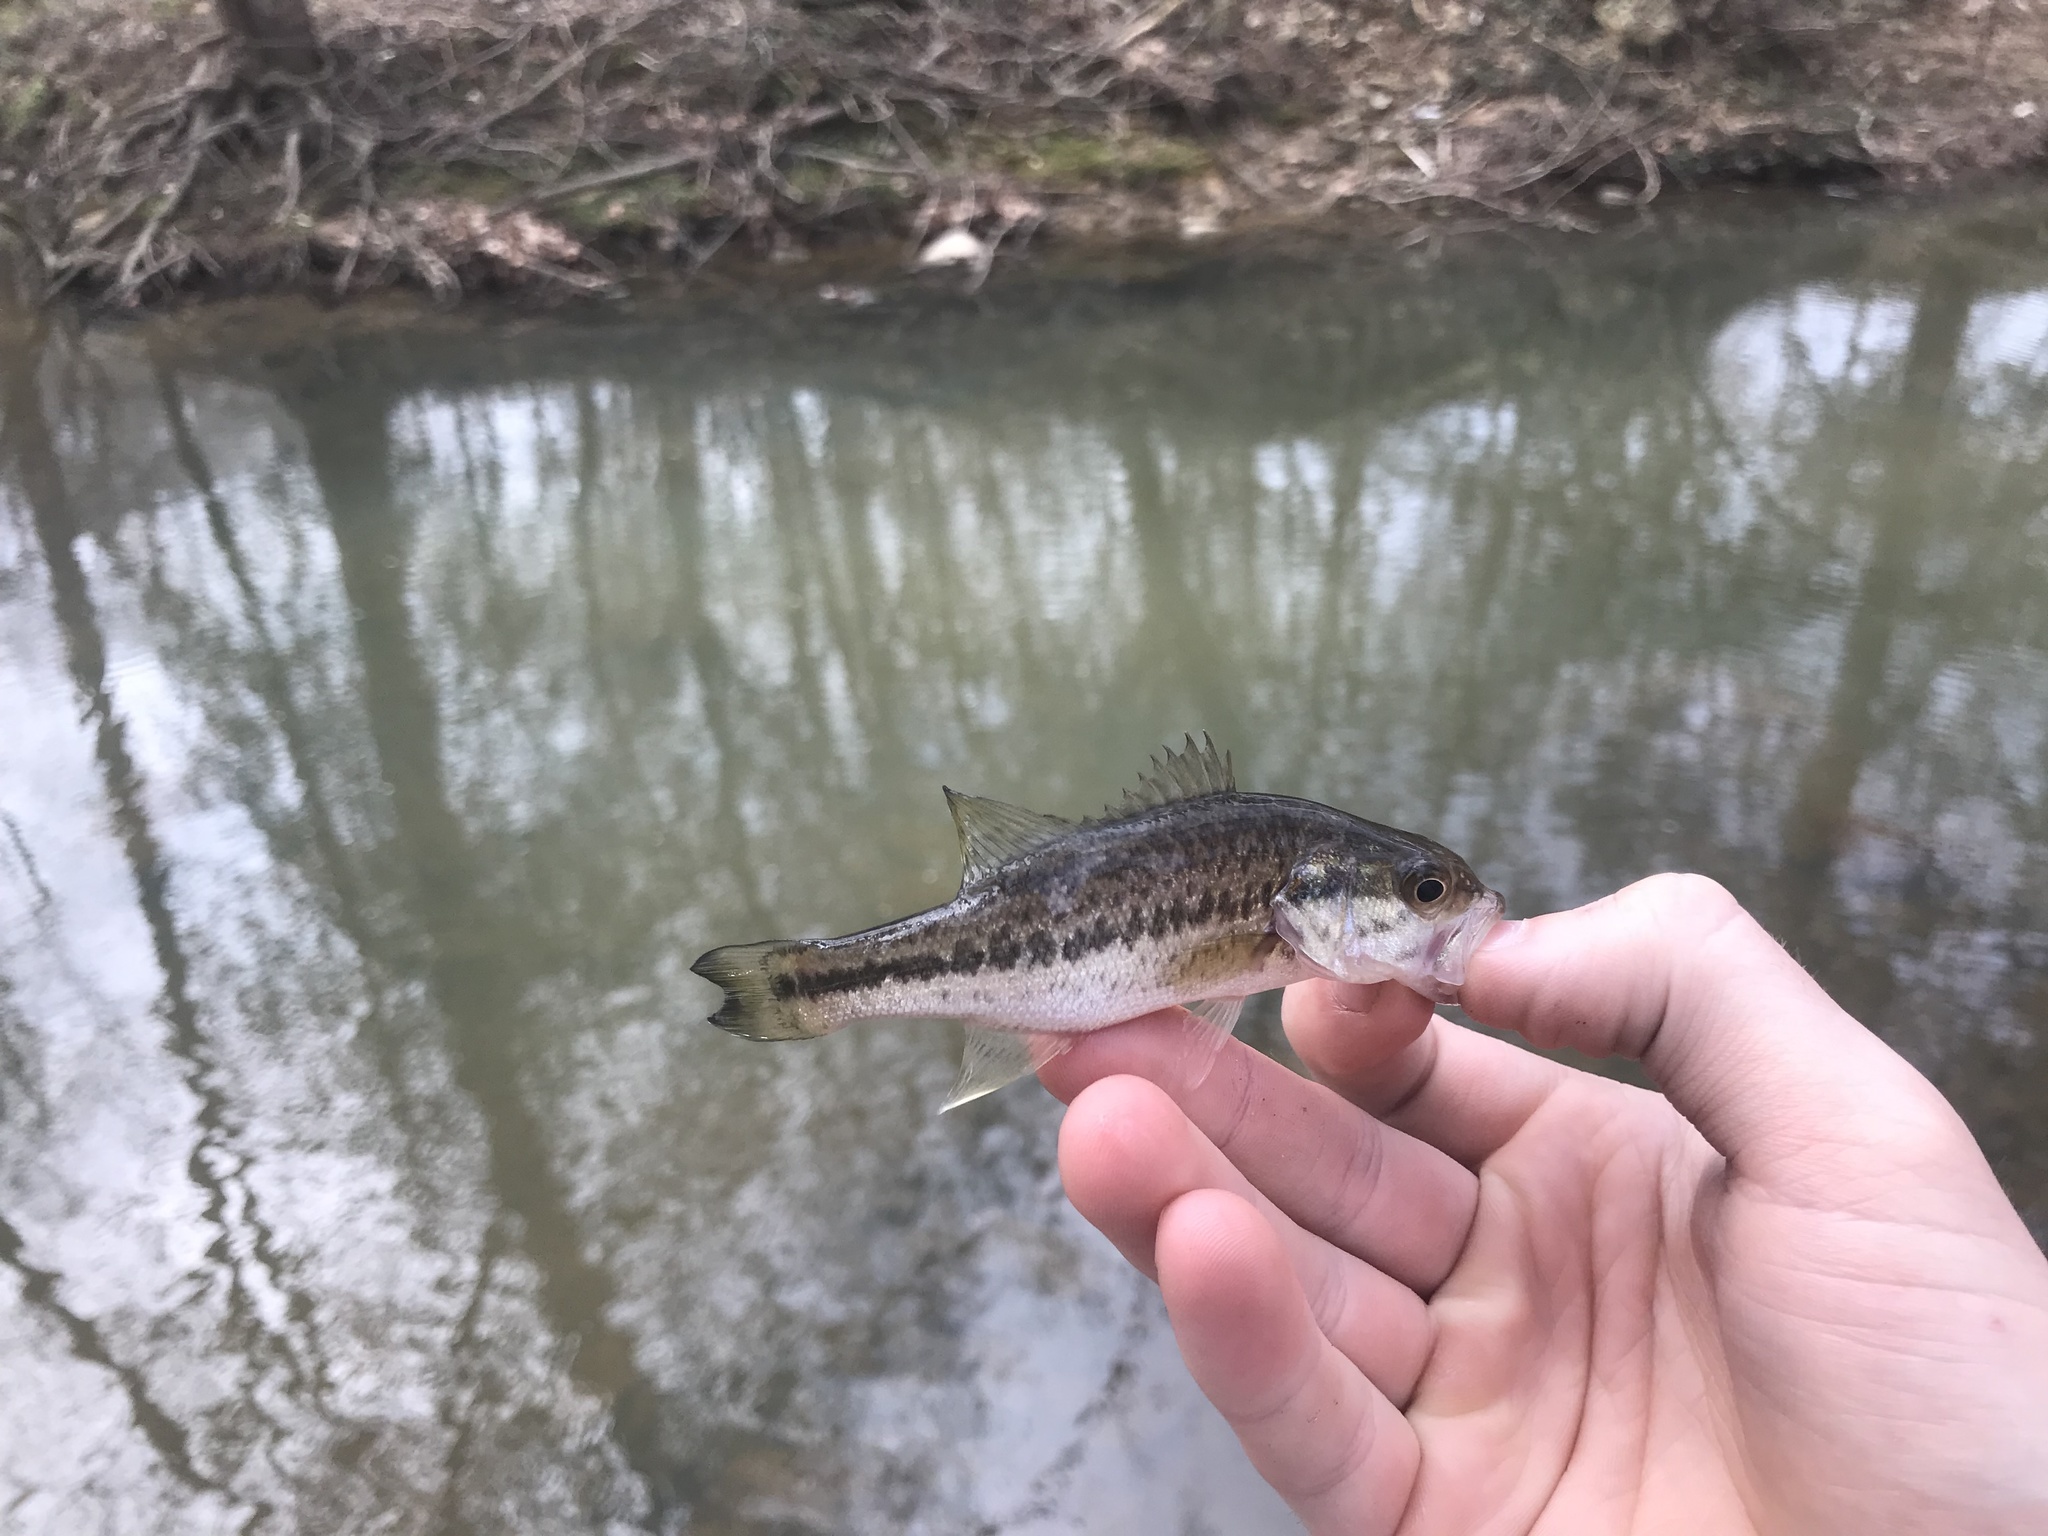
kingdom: Animalia
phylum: Chordata
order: Perciformes
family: Centrarchidae
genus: Micropterus
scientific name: Micropterus
